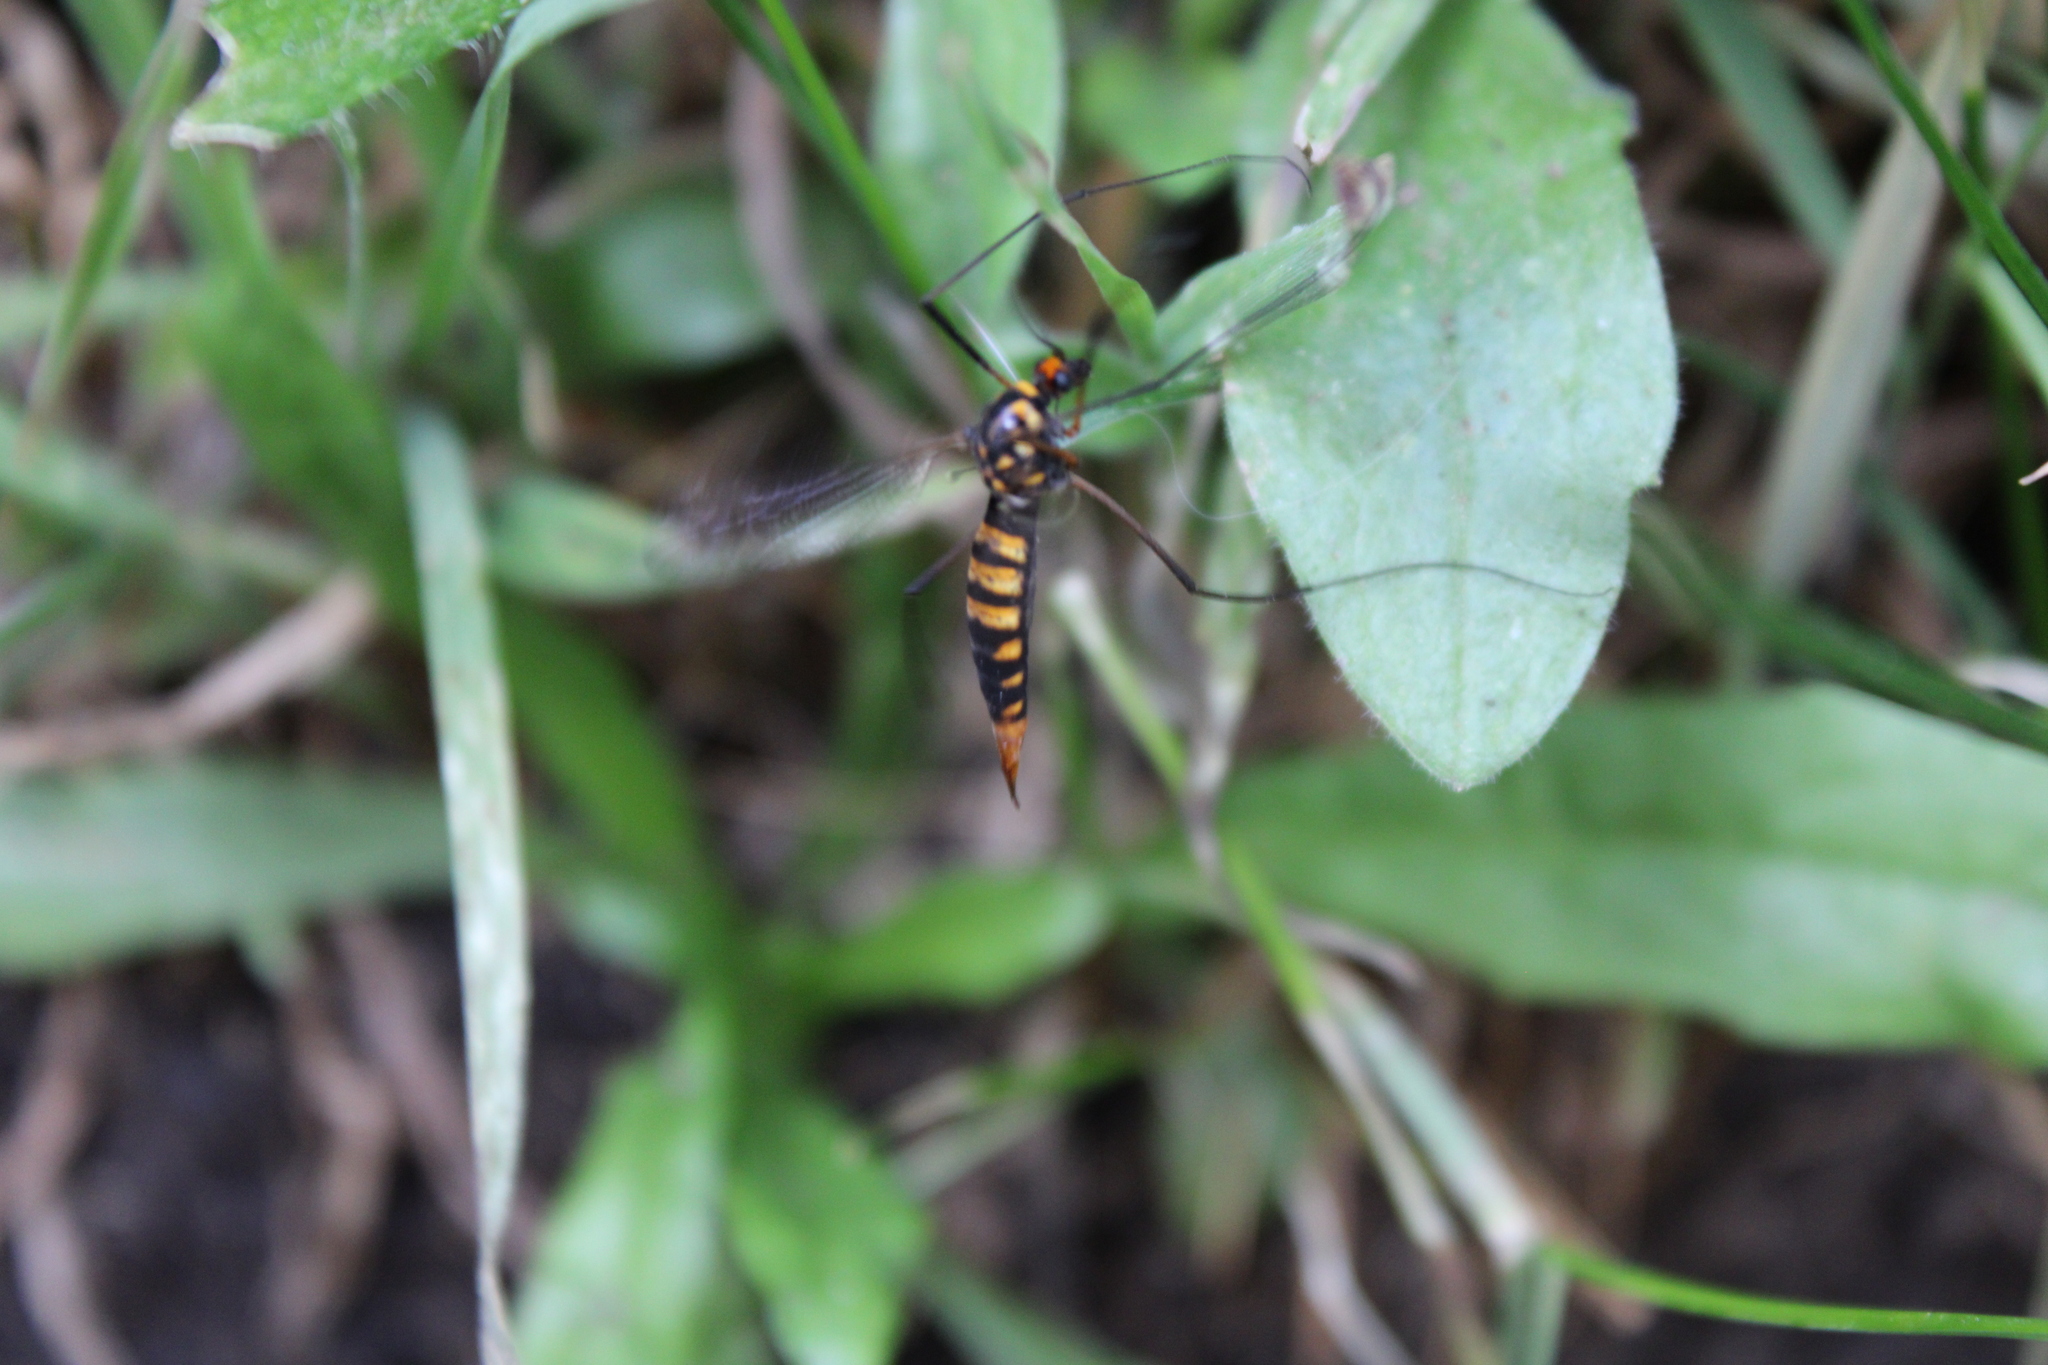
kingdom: Animalia
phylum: Arthropoda
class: Insecta
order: Diptera
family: Tipulidae
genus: Nephrotoma
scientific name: Nephrotoma crocata
